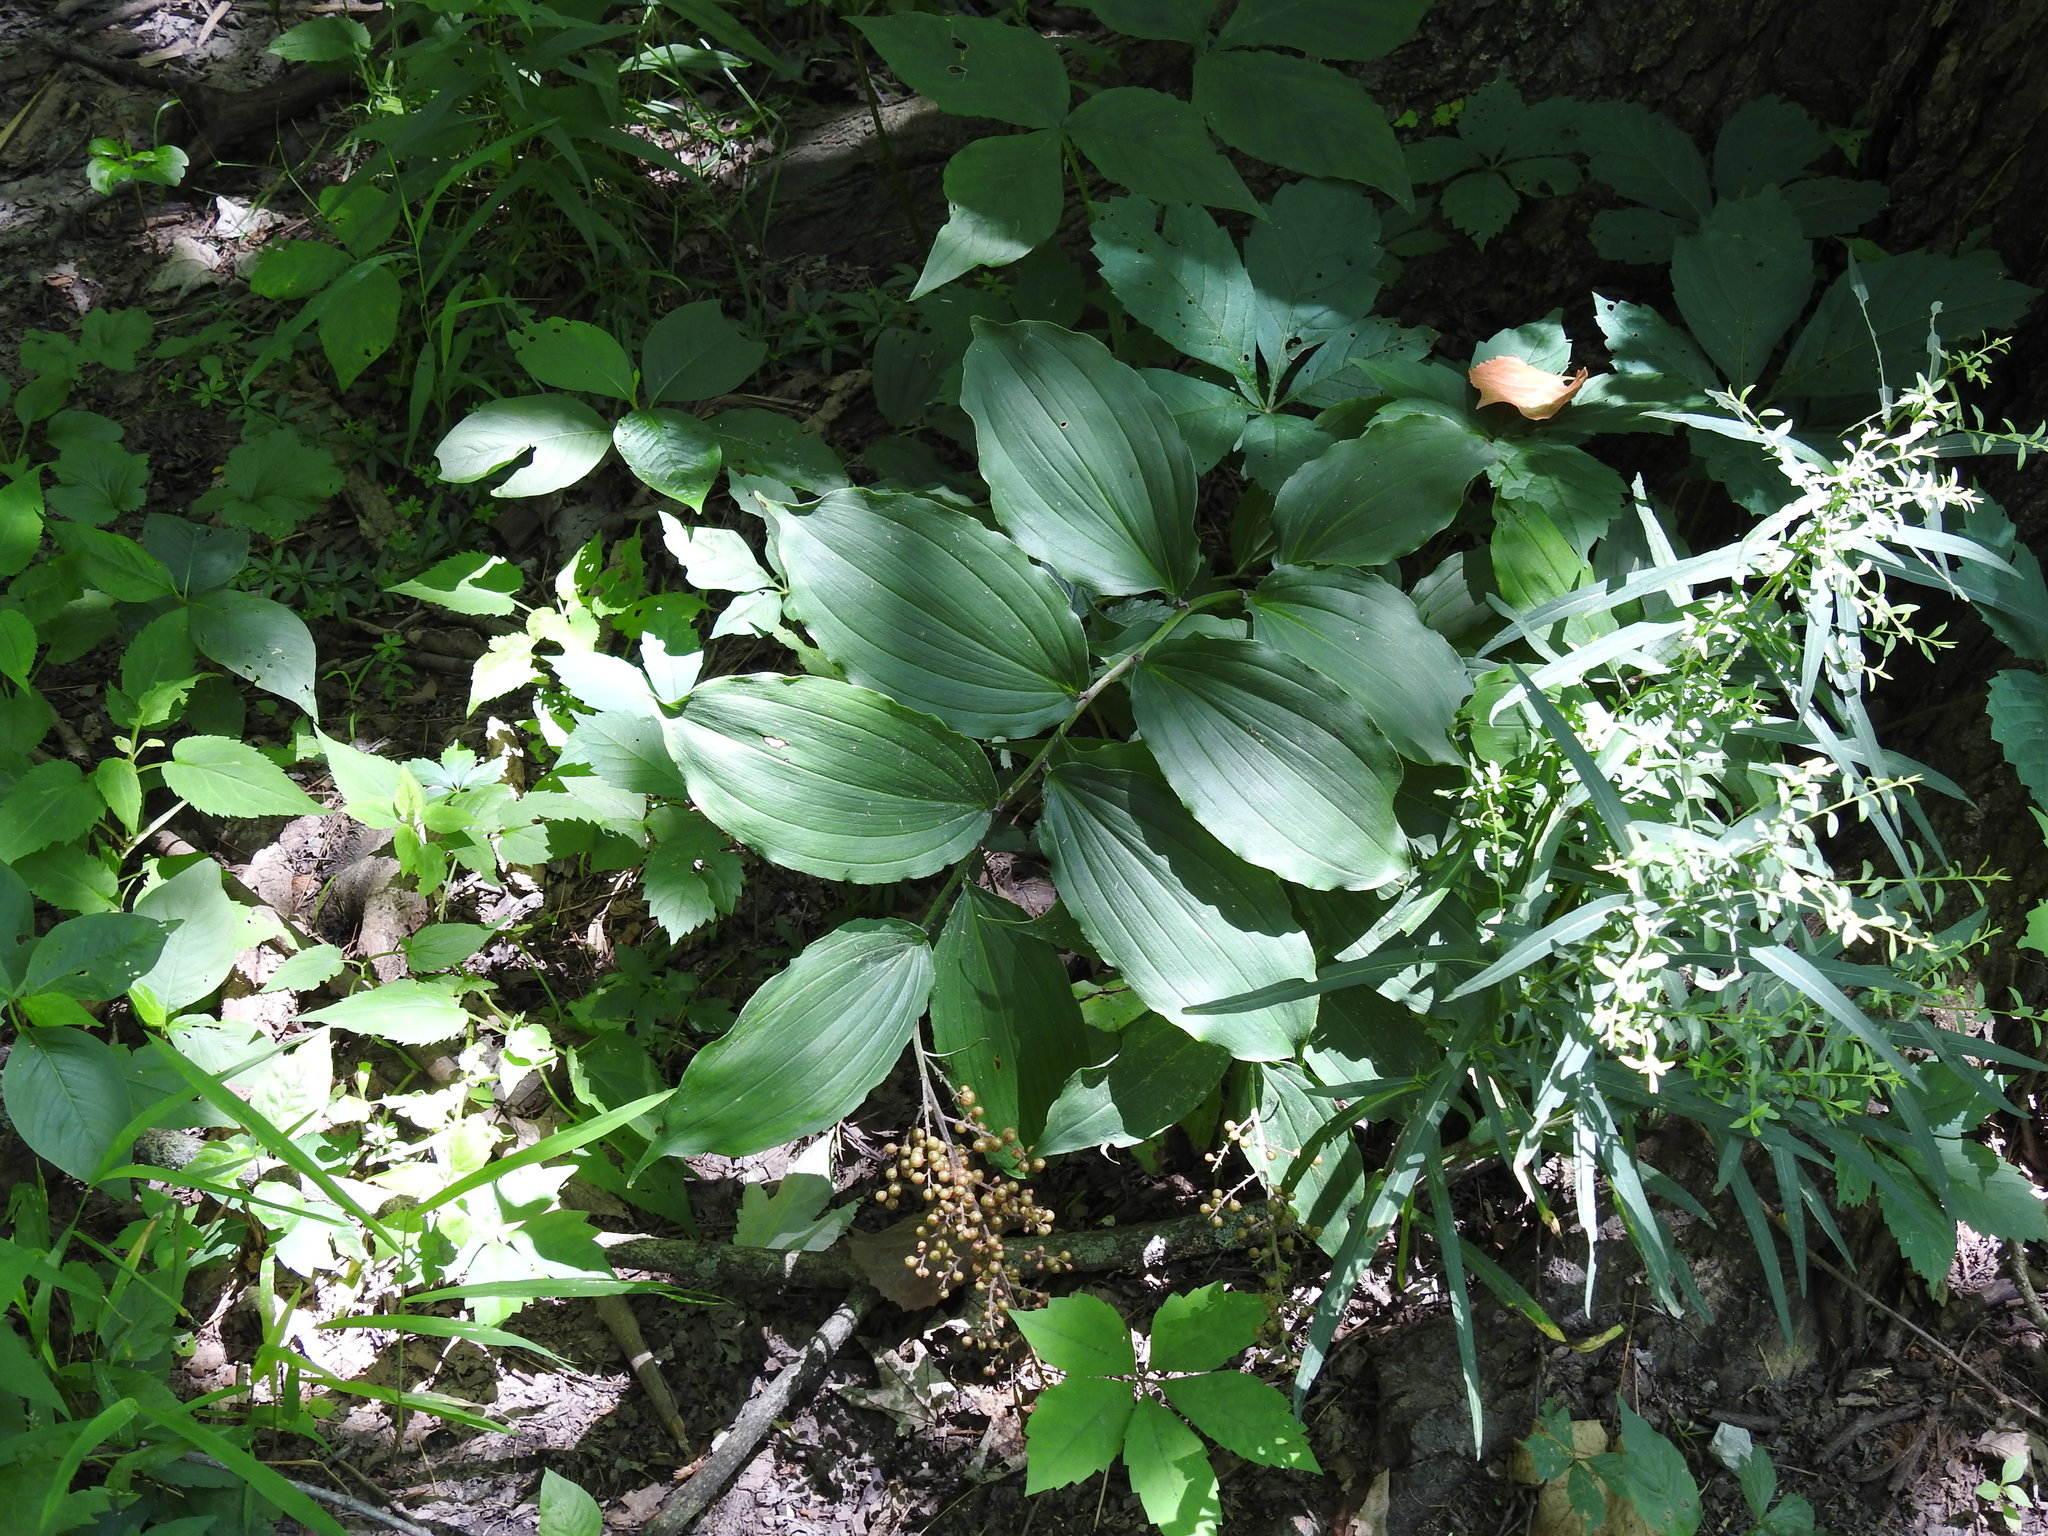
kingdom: Plantae
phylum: Tracheophyta
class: Liliopsida
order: Asparagales
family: Asparagaceae
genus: Maianthemum
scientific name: Maianthemum racemosum
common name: False spikenard
